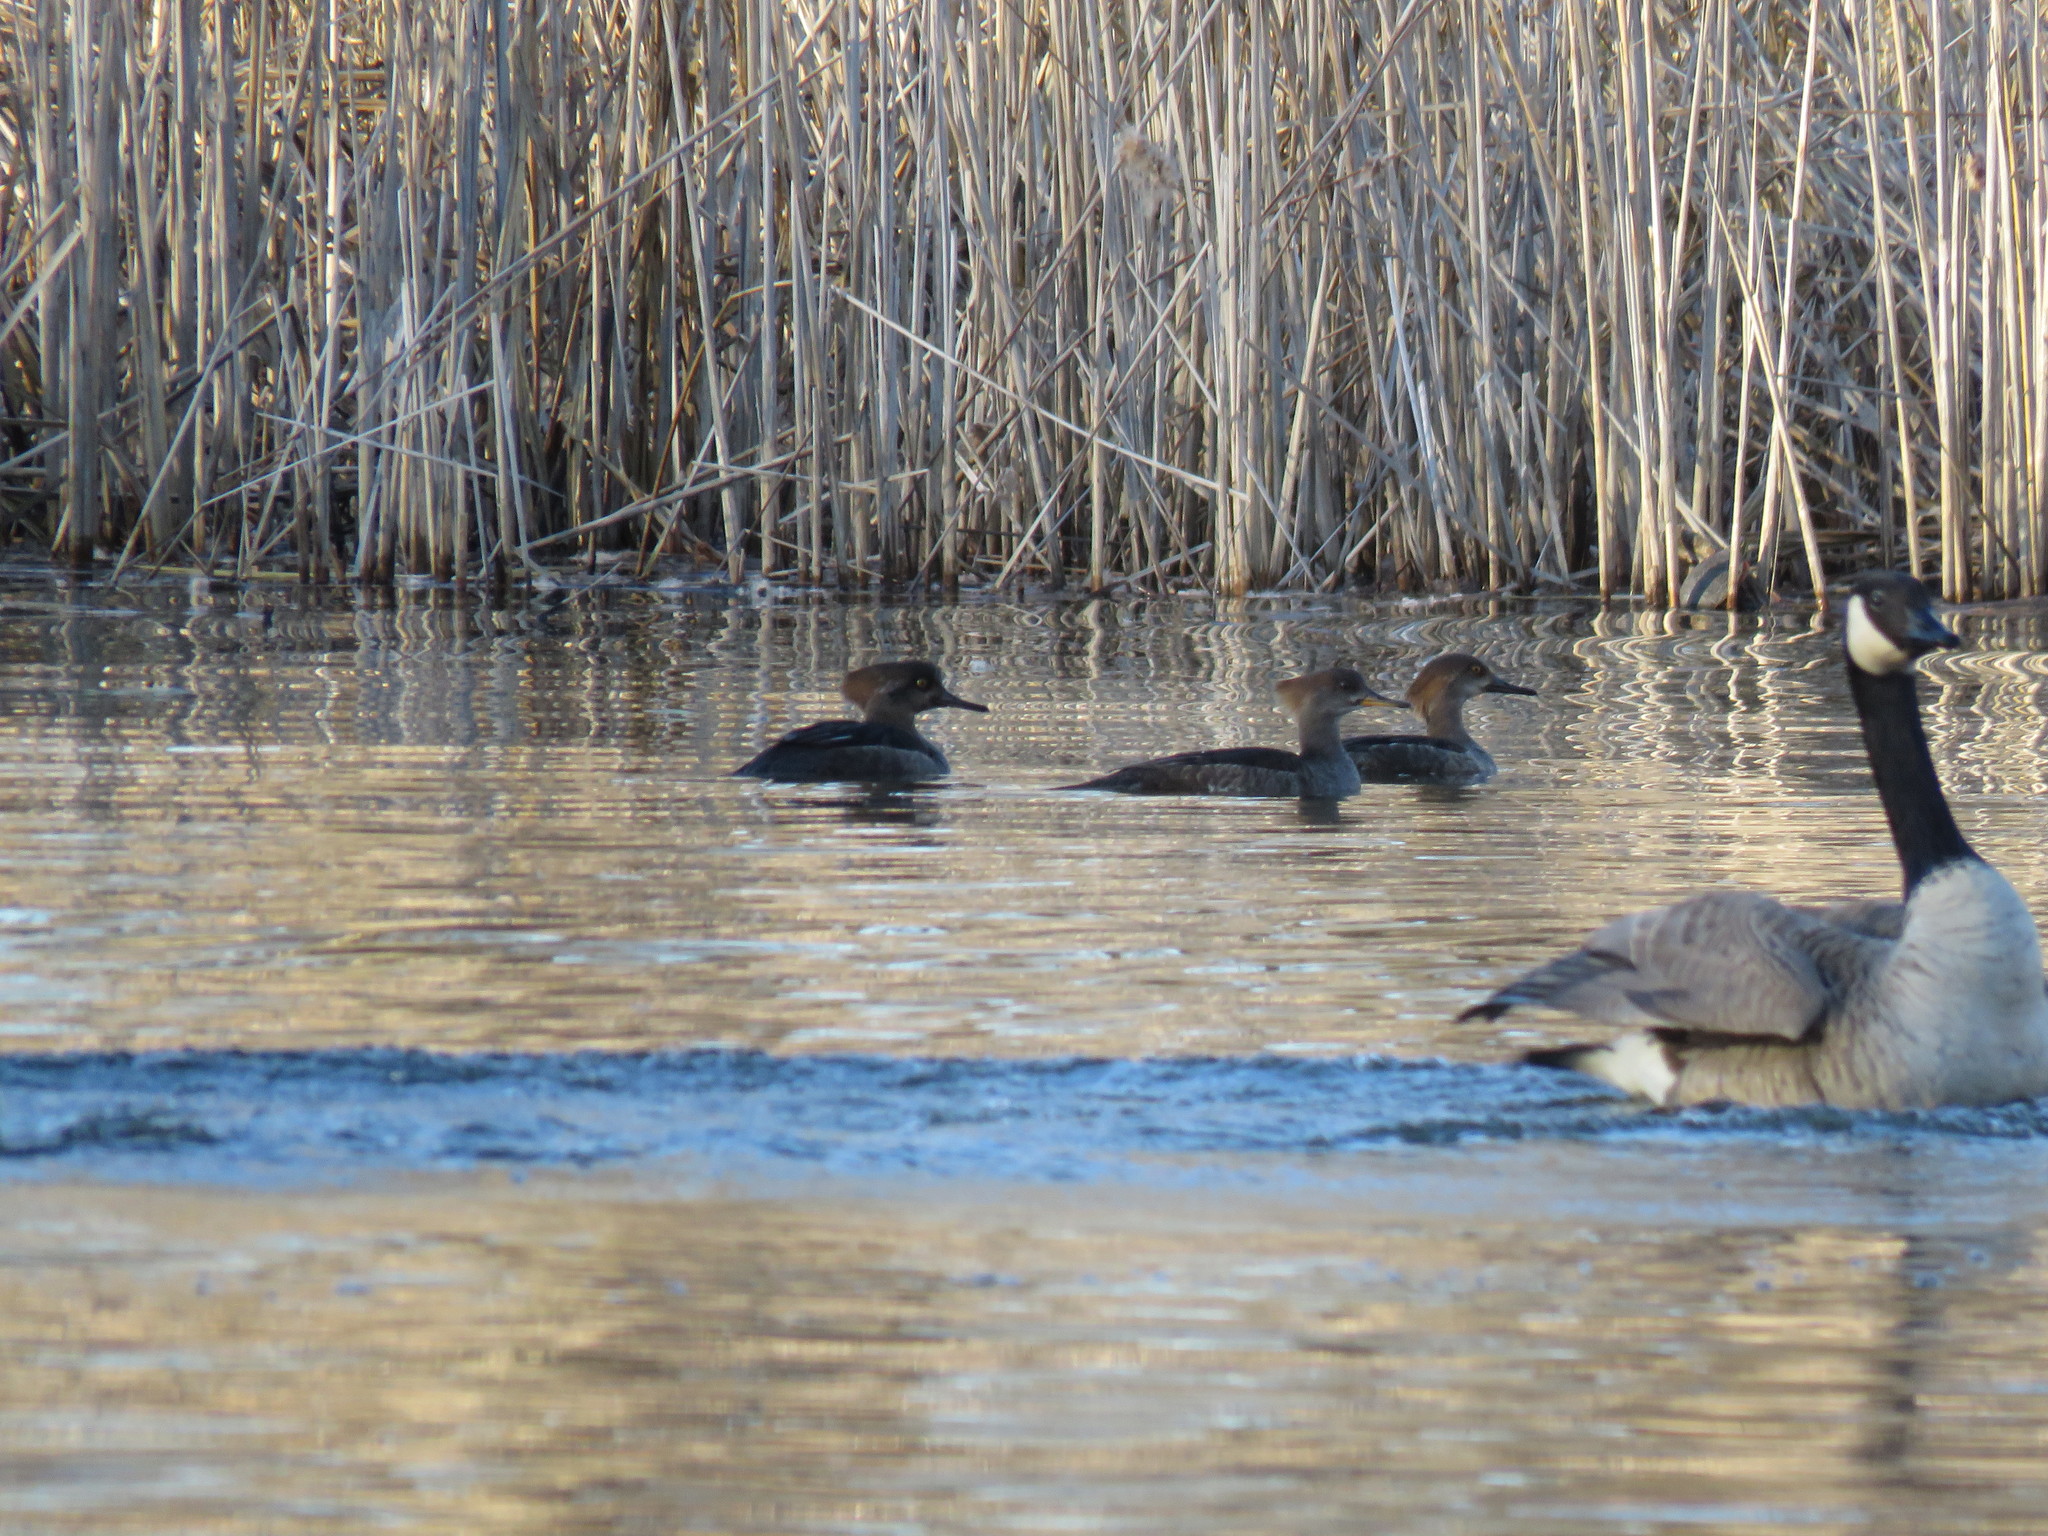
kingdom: Animalia
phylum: Chordata
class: Aves
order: Anseriformes
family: Anatidae
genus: Lophodytes
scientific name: Lophodytes cucullatus
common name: Hooded merganser
